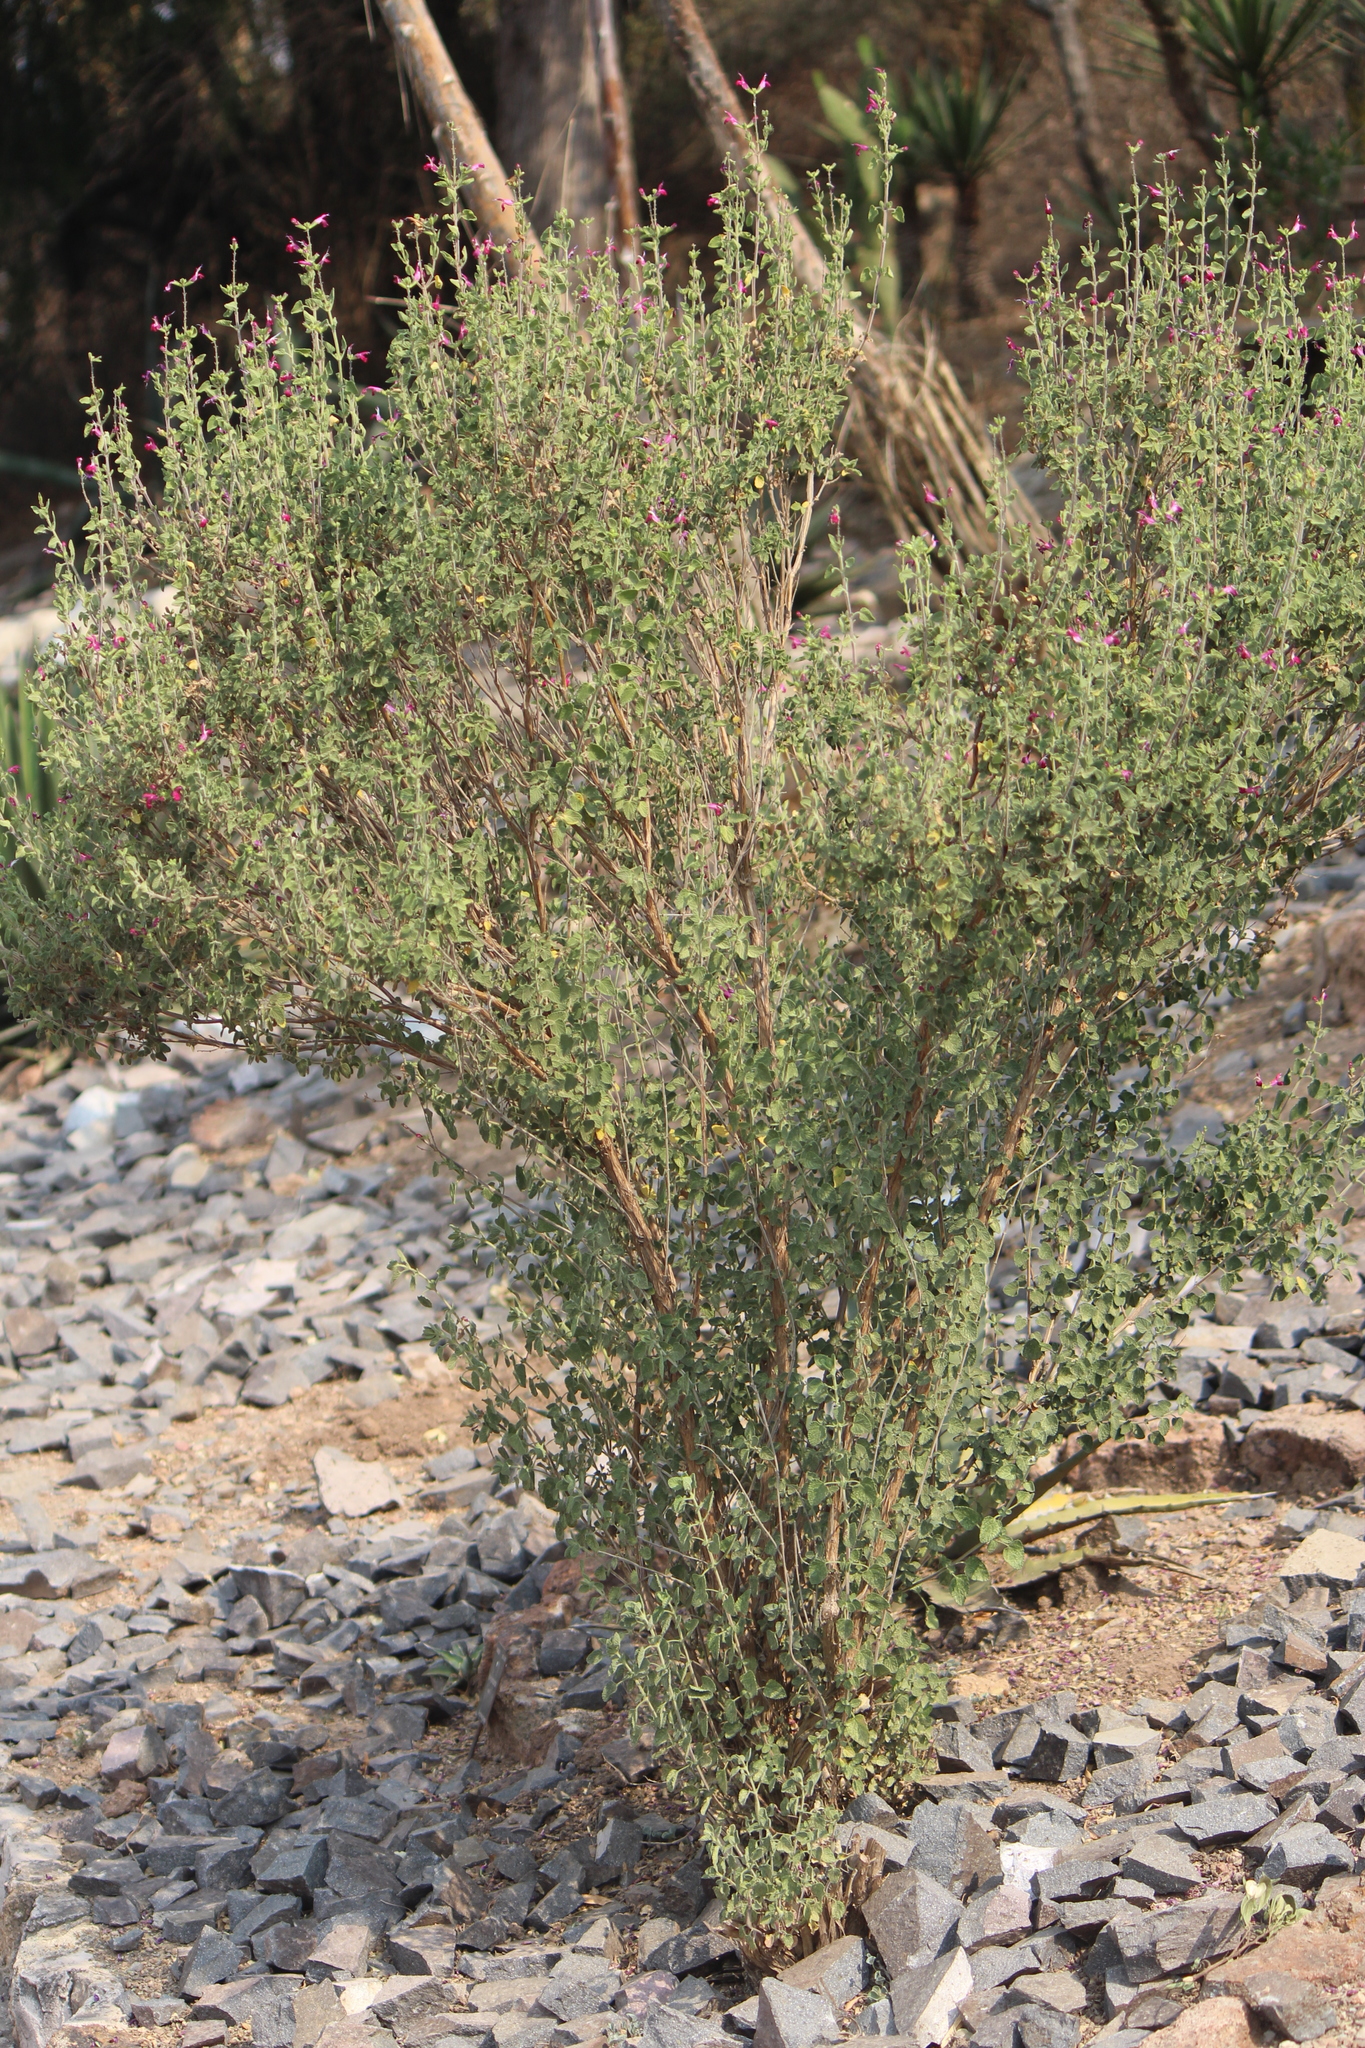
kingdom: Plantae
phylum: Tracheophyta
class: Magnoliopsida
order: Lamiales
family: Lamiaceae
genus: Salvia
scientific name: Salvia microphylla
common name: Baby sage
